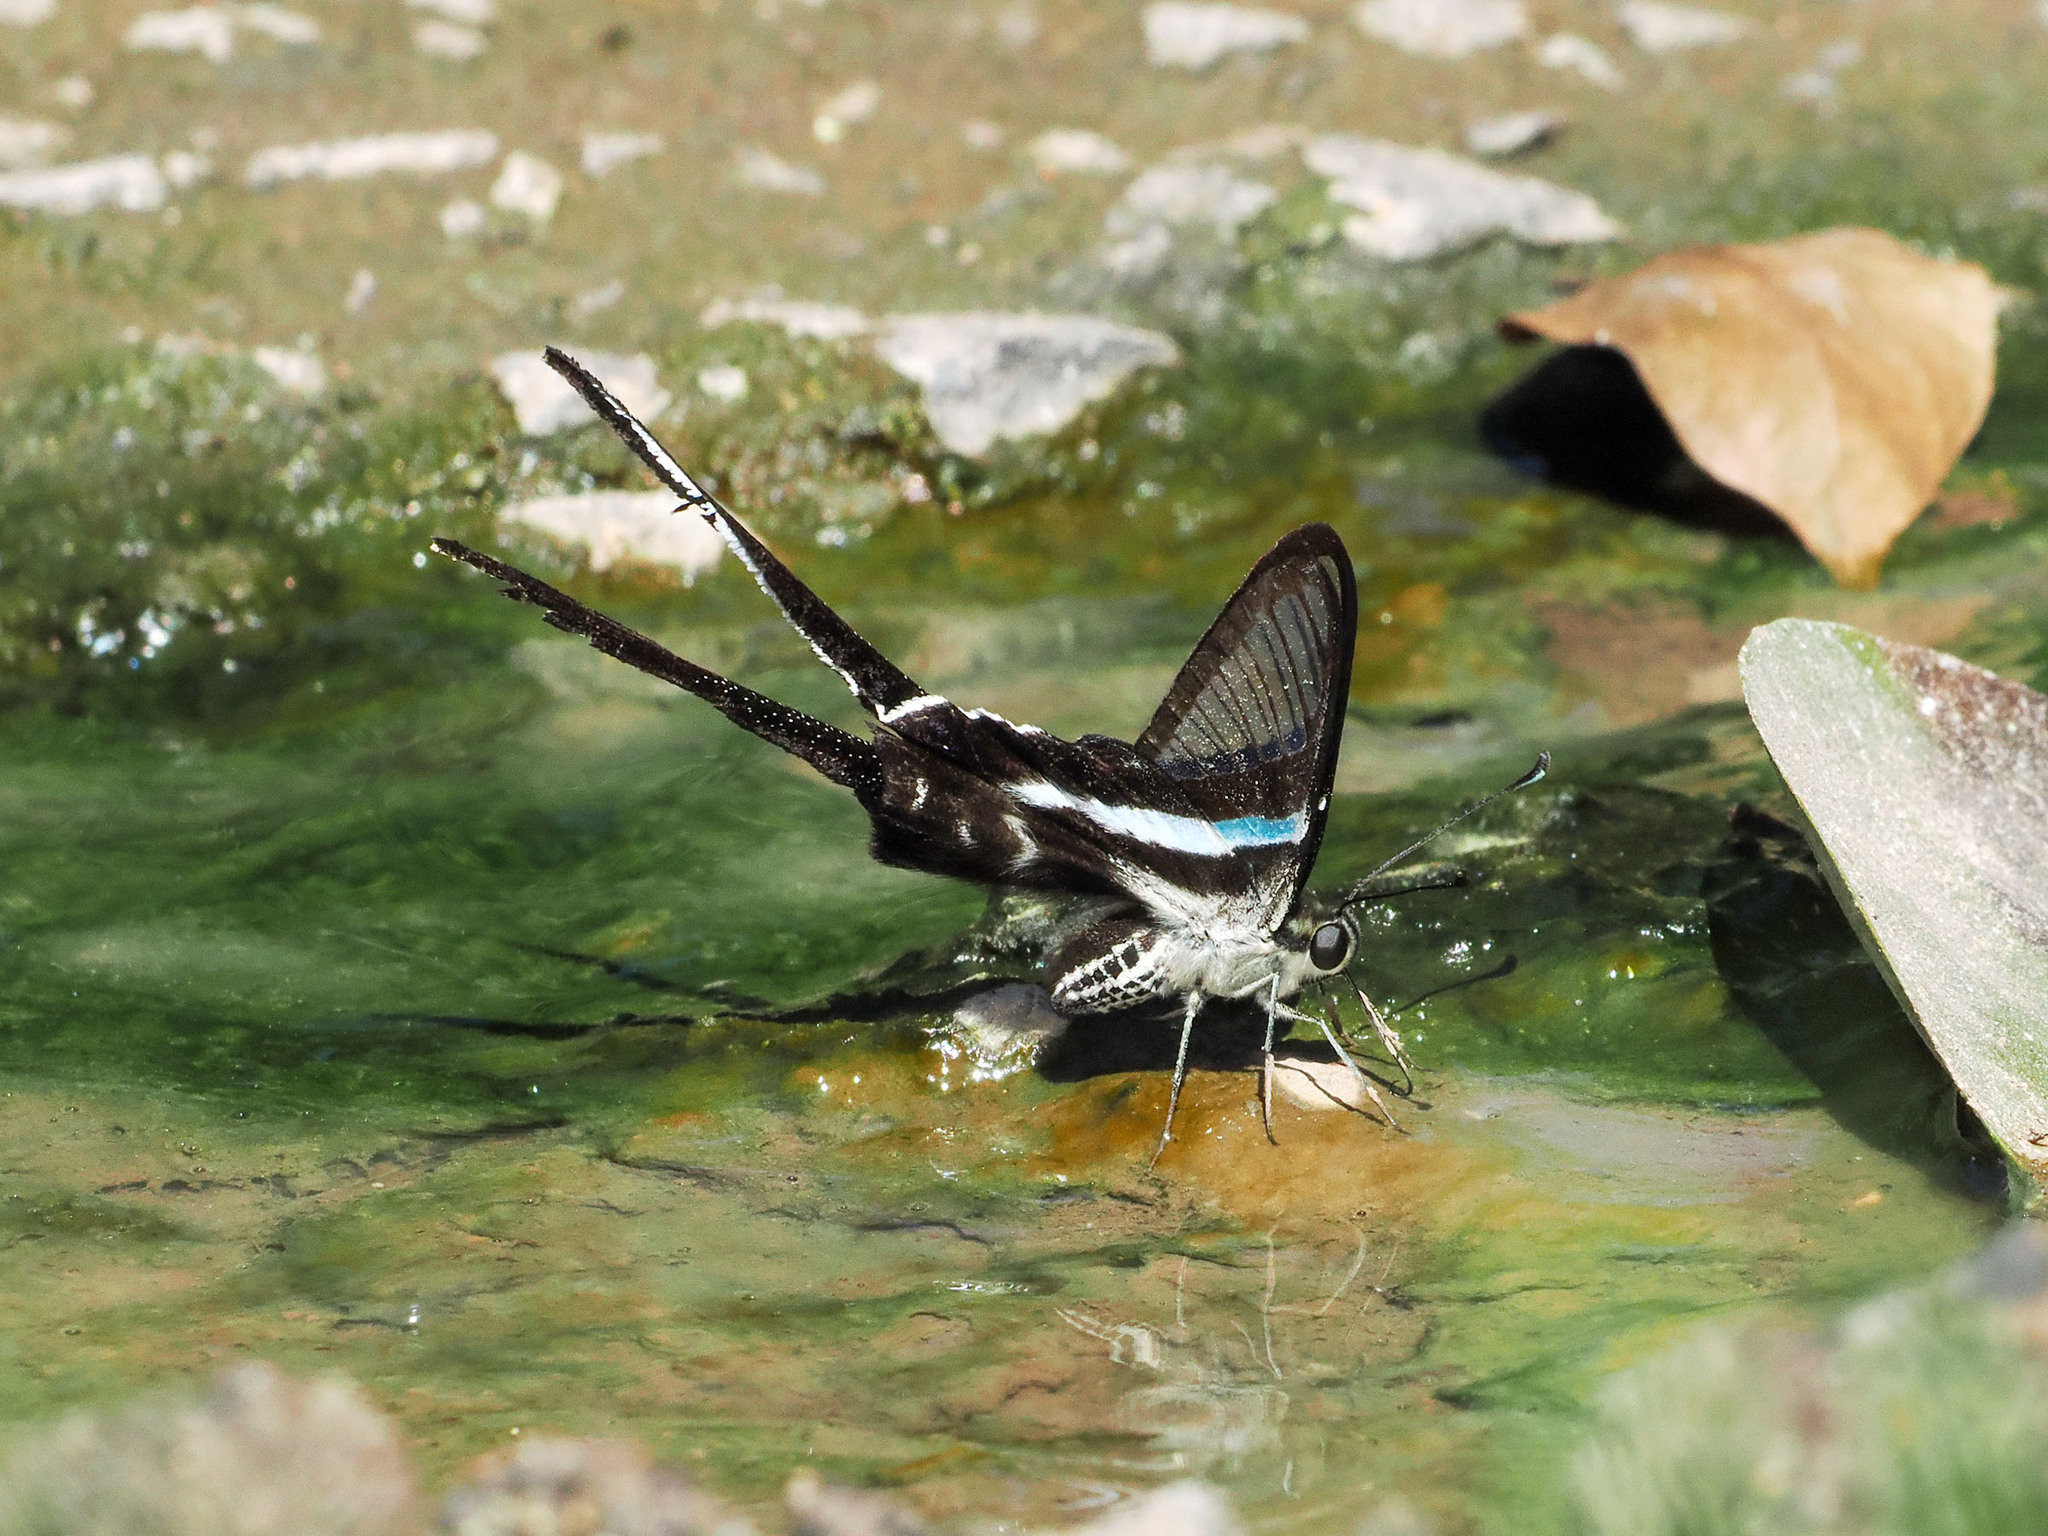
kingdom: Animalia
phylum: Arthropoda
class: Insecta
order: Lepidoptera
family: Papilionidae
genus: Lamproptera
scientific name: Lamproptera meges
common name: Green dragontail
